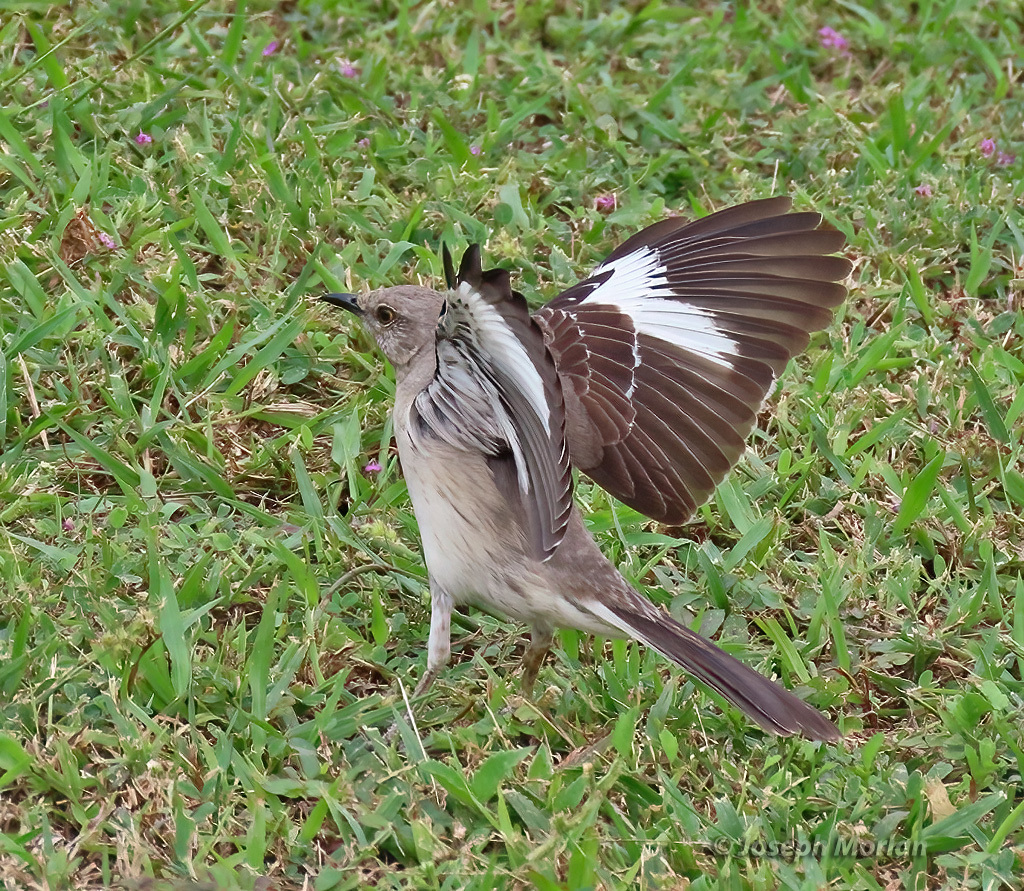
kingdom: Animalia
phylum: Chordata
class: Aves
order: Passeriformes
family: Mimidae
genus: Mimus
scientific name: Mimus polyglottos
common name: Northern mockingbird
